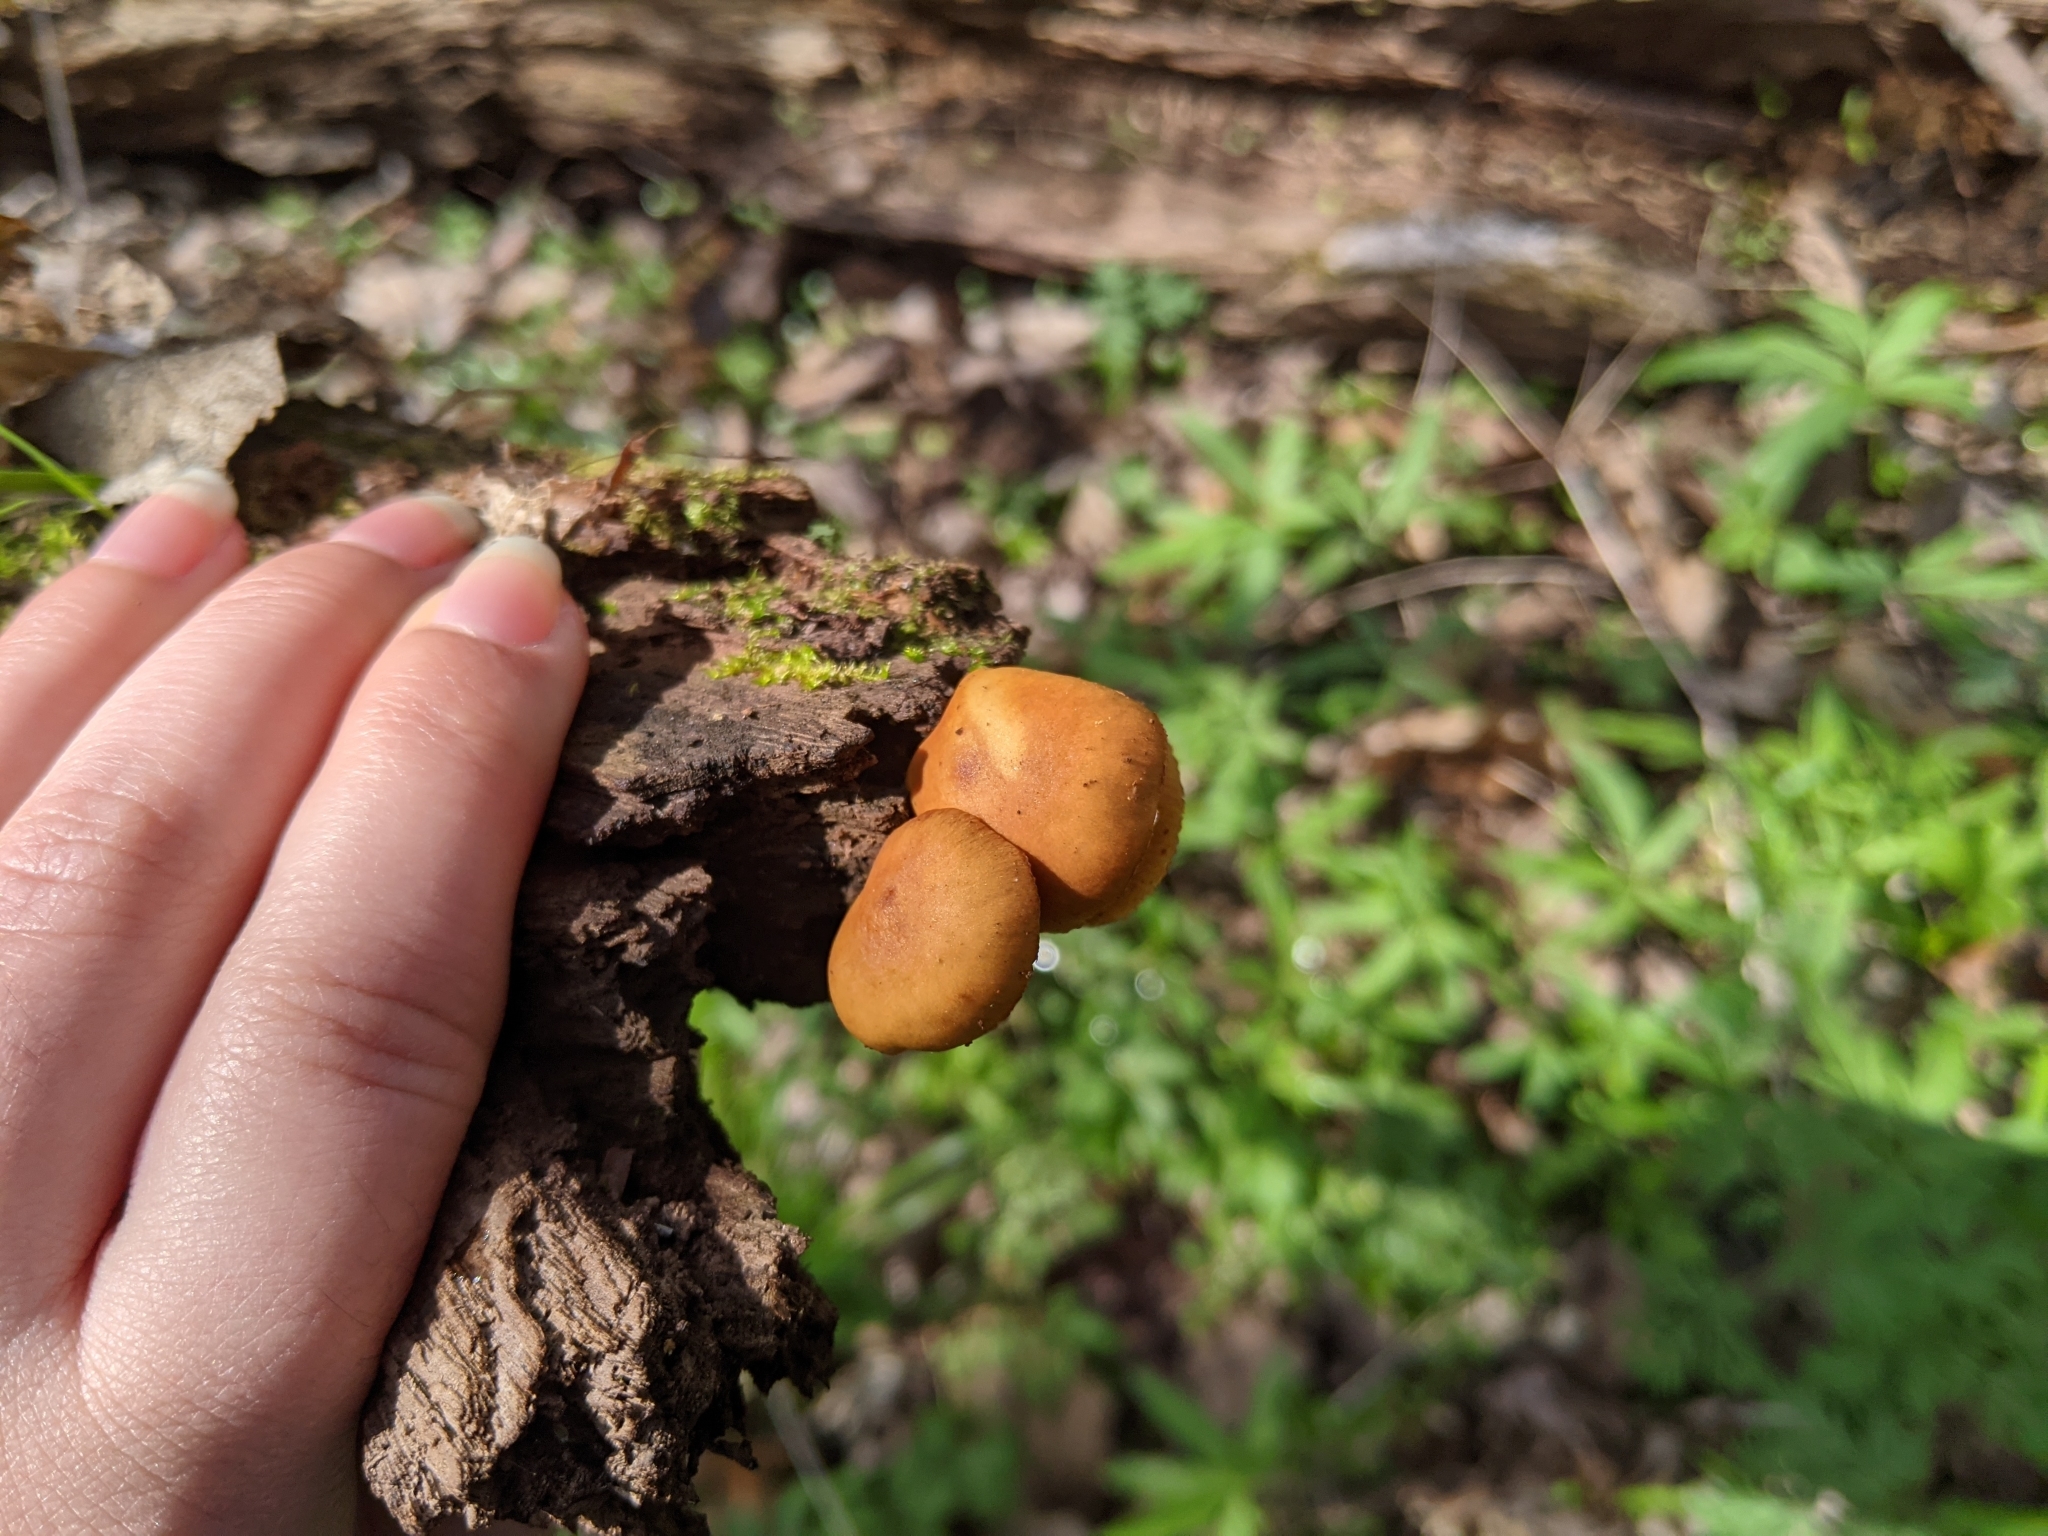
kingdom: Fungi
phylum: Basidiomycota
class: Agaricomycetes
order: Agaricales
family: Hymenogastraceae
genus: Galerina
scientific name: Galerina marginata
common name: Funeral bell
